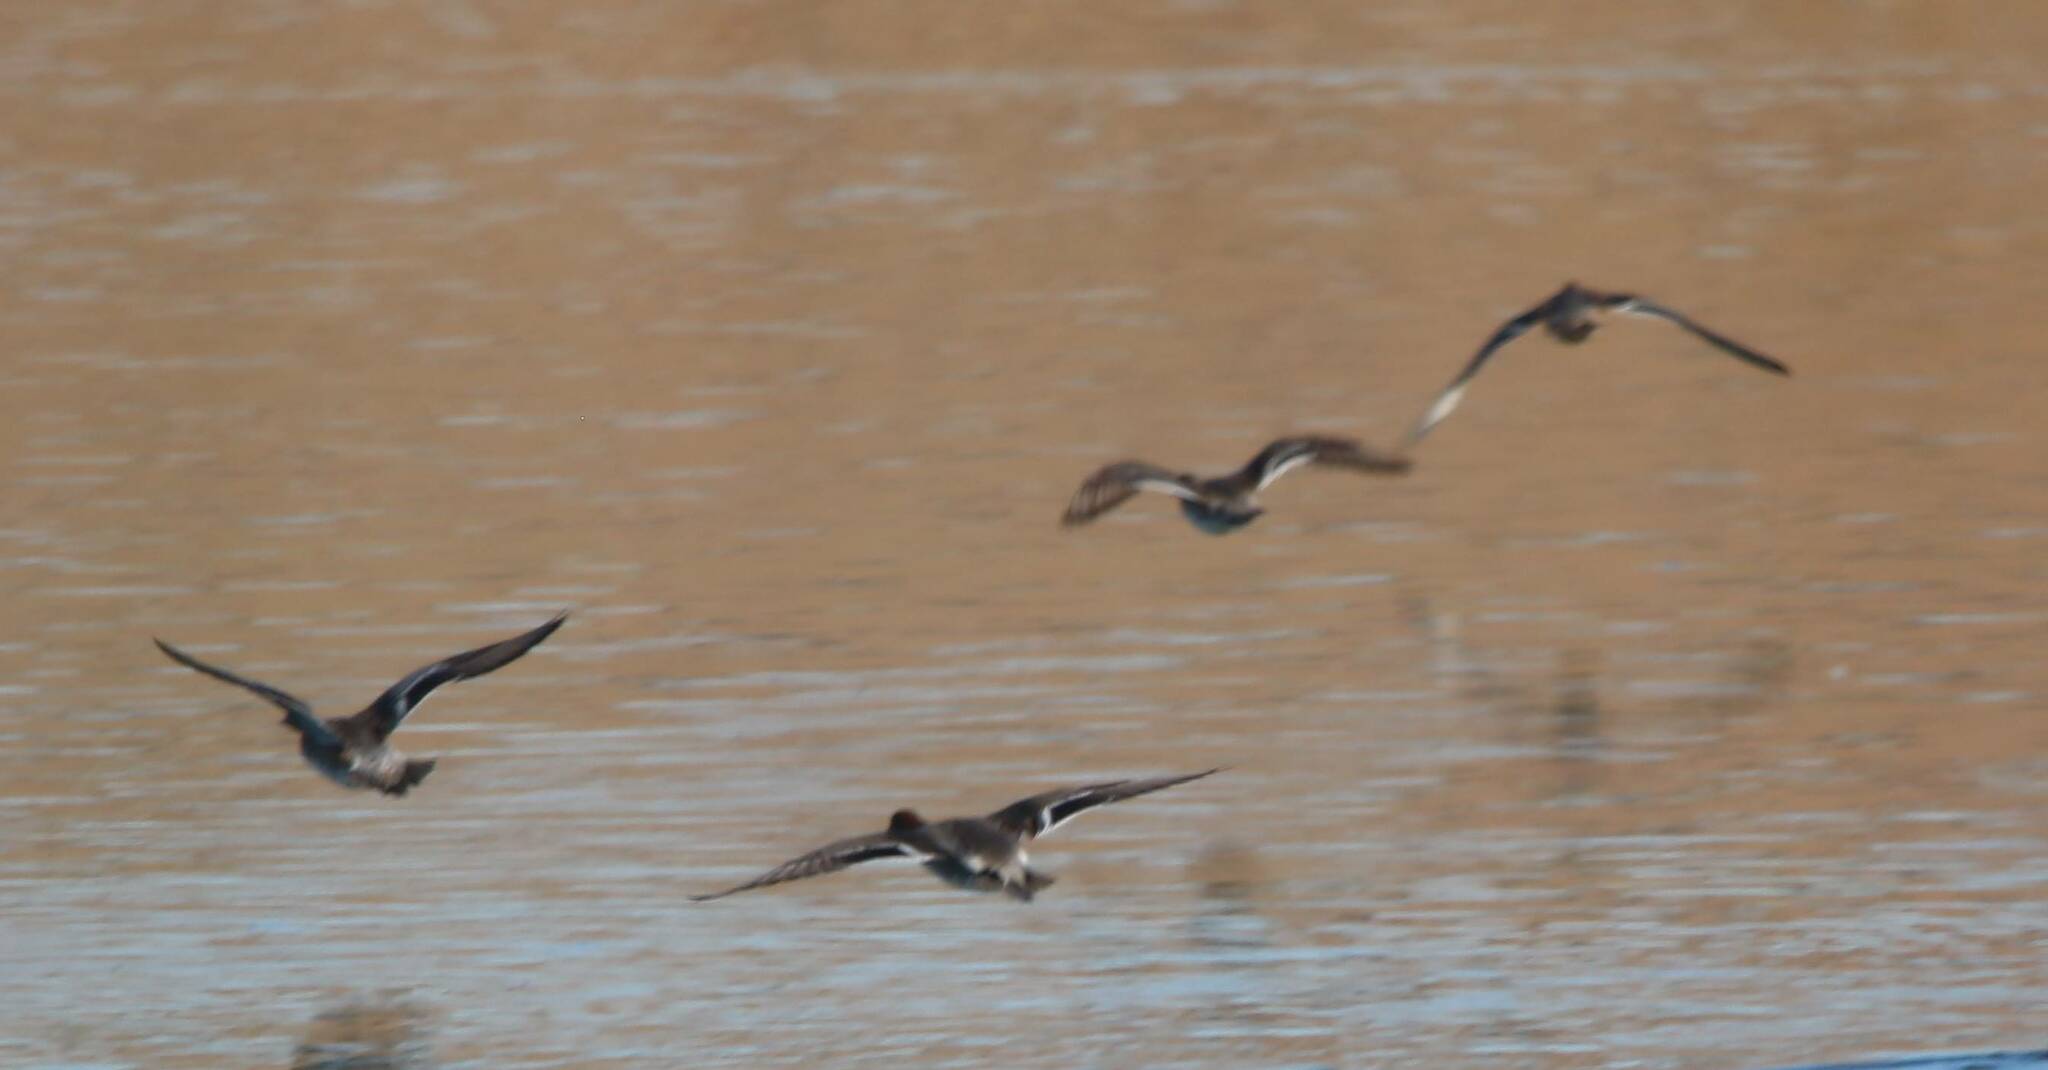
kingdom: Animalia
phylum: Chordata
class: Aves
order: Anseriformes
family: Anatidae
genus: Anas
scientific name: Anas crecca
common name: Eurasian teal
